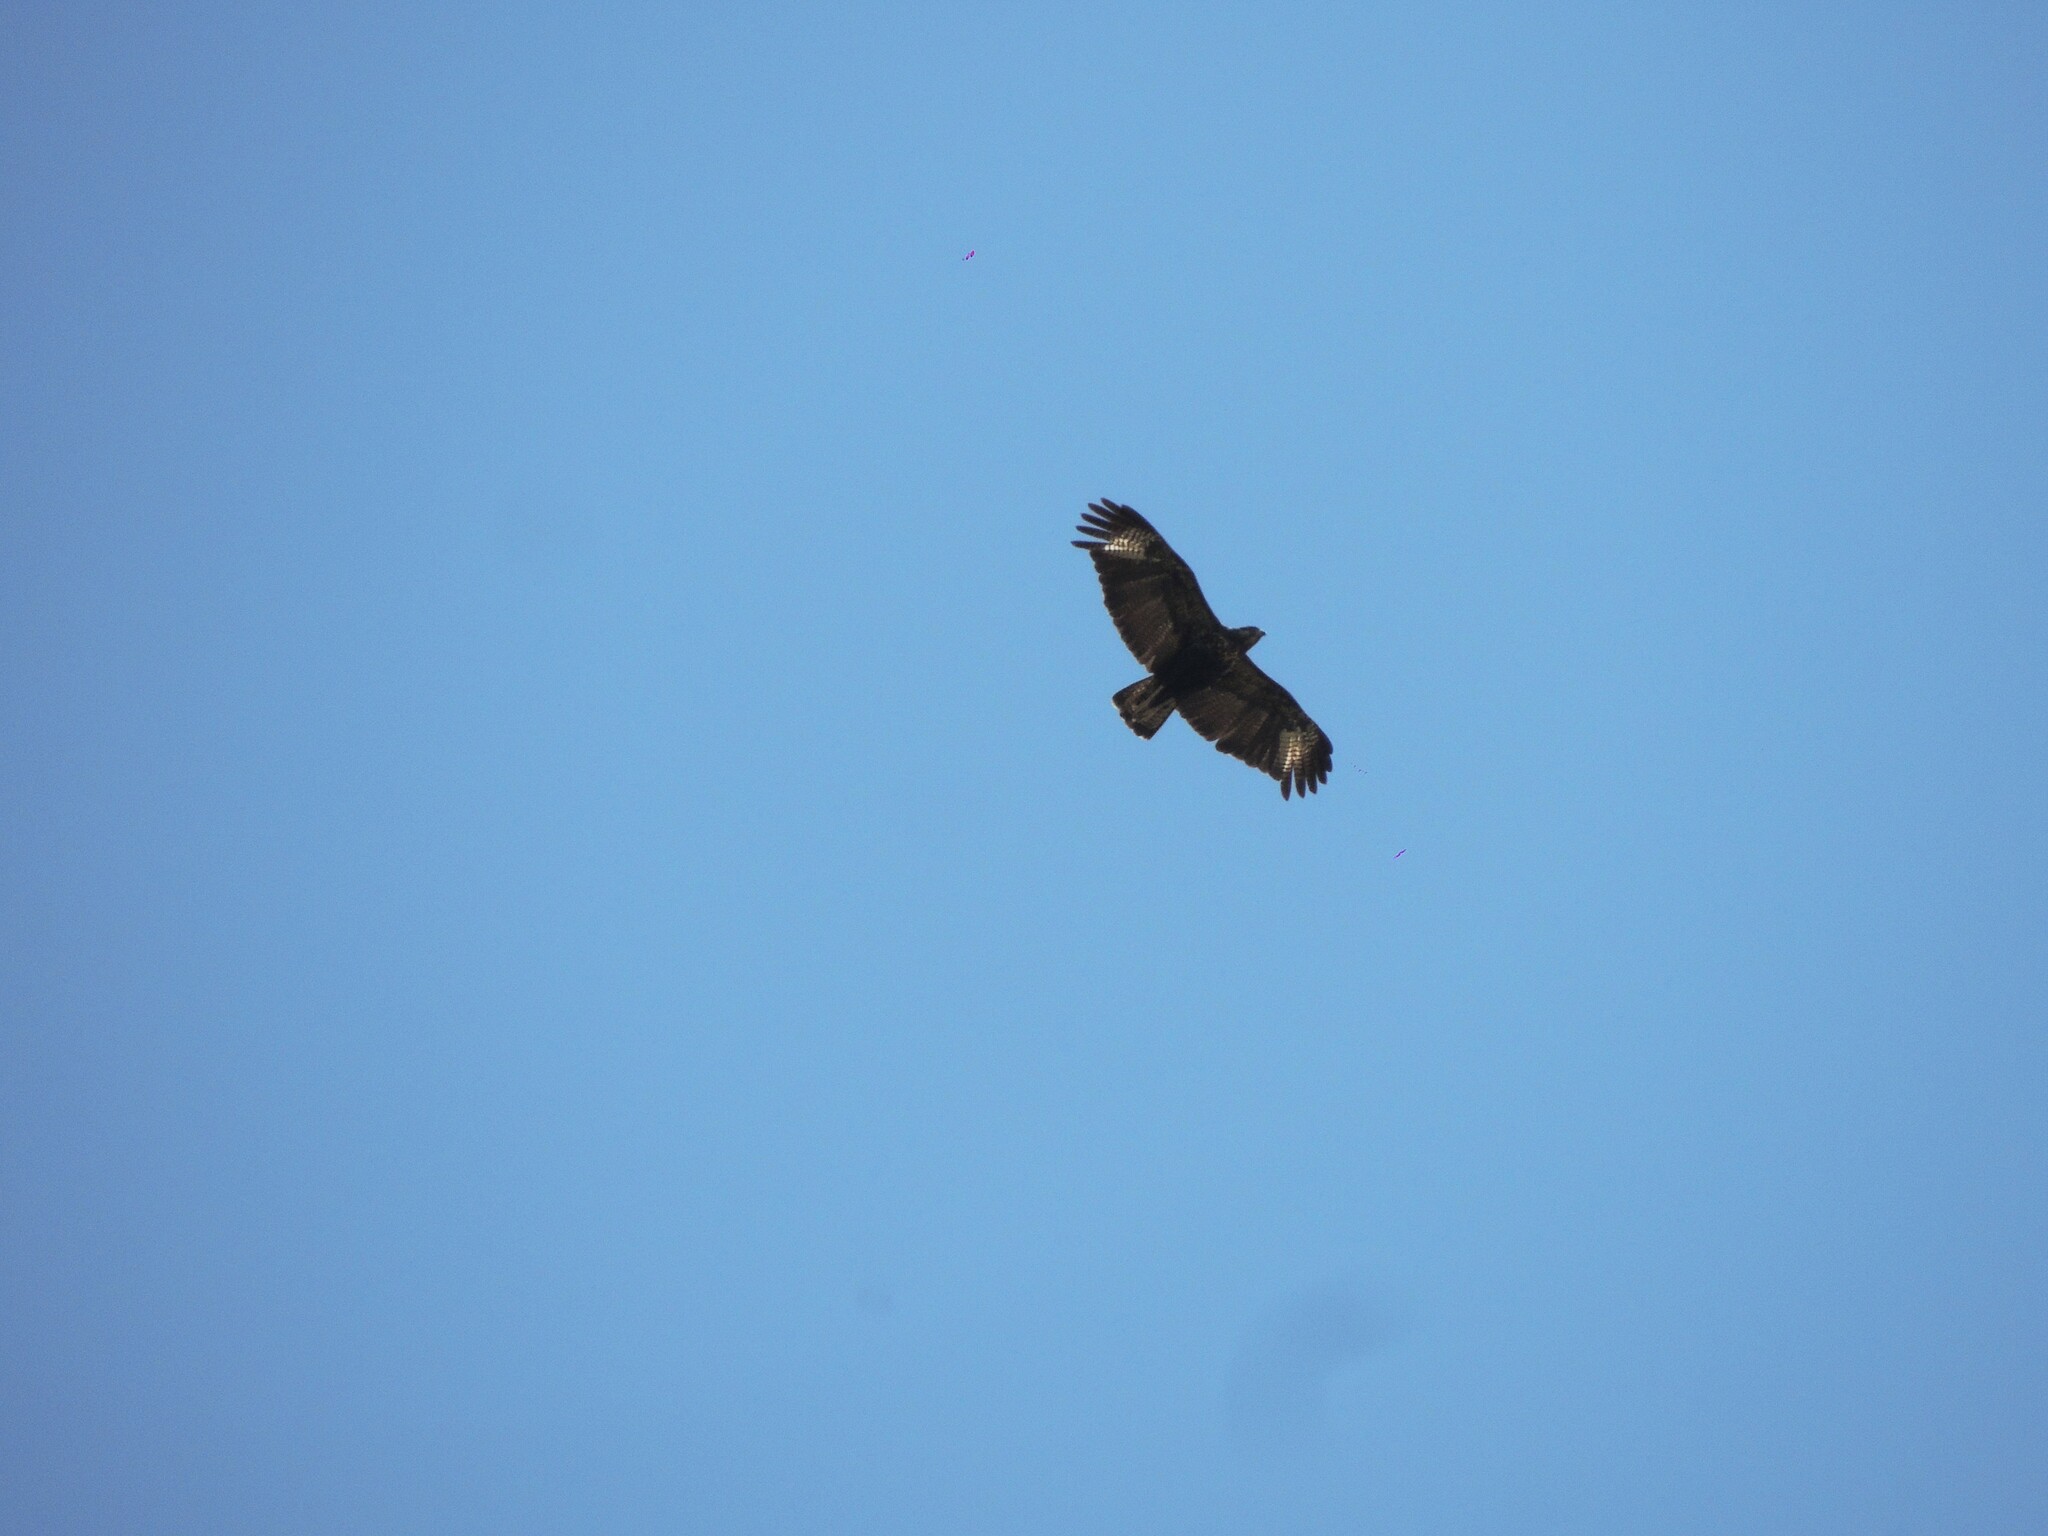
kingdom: Animalia
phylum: Chordata
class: Aves
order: Accipitriformes
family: Accipitridae
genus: Buteogallus
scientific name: Buteogallus urubitinga
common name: Great black hawk
